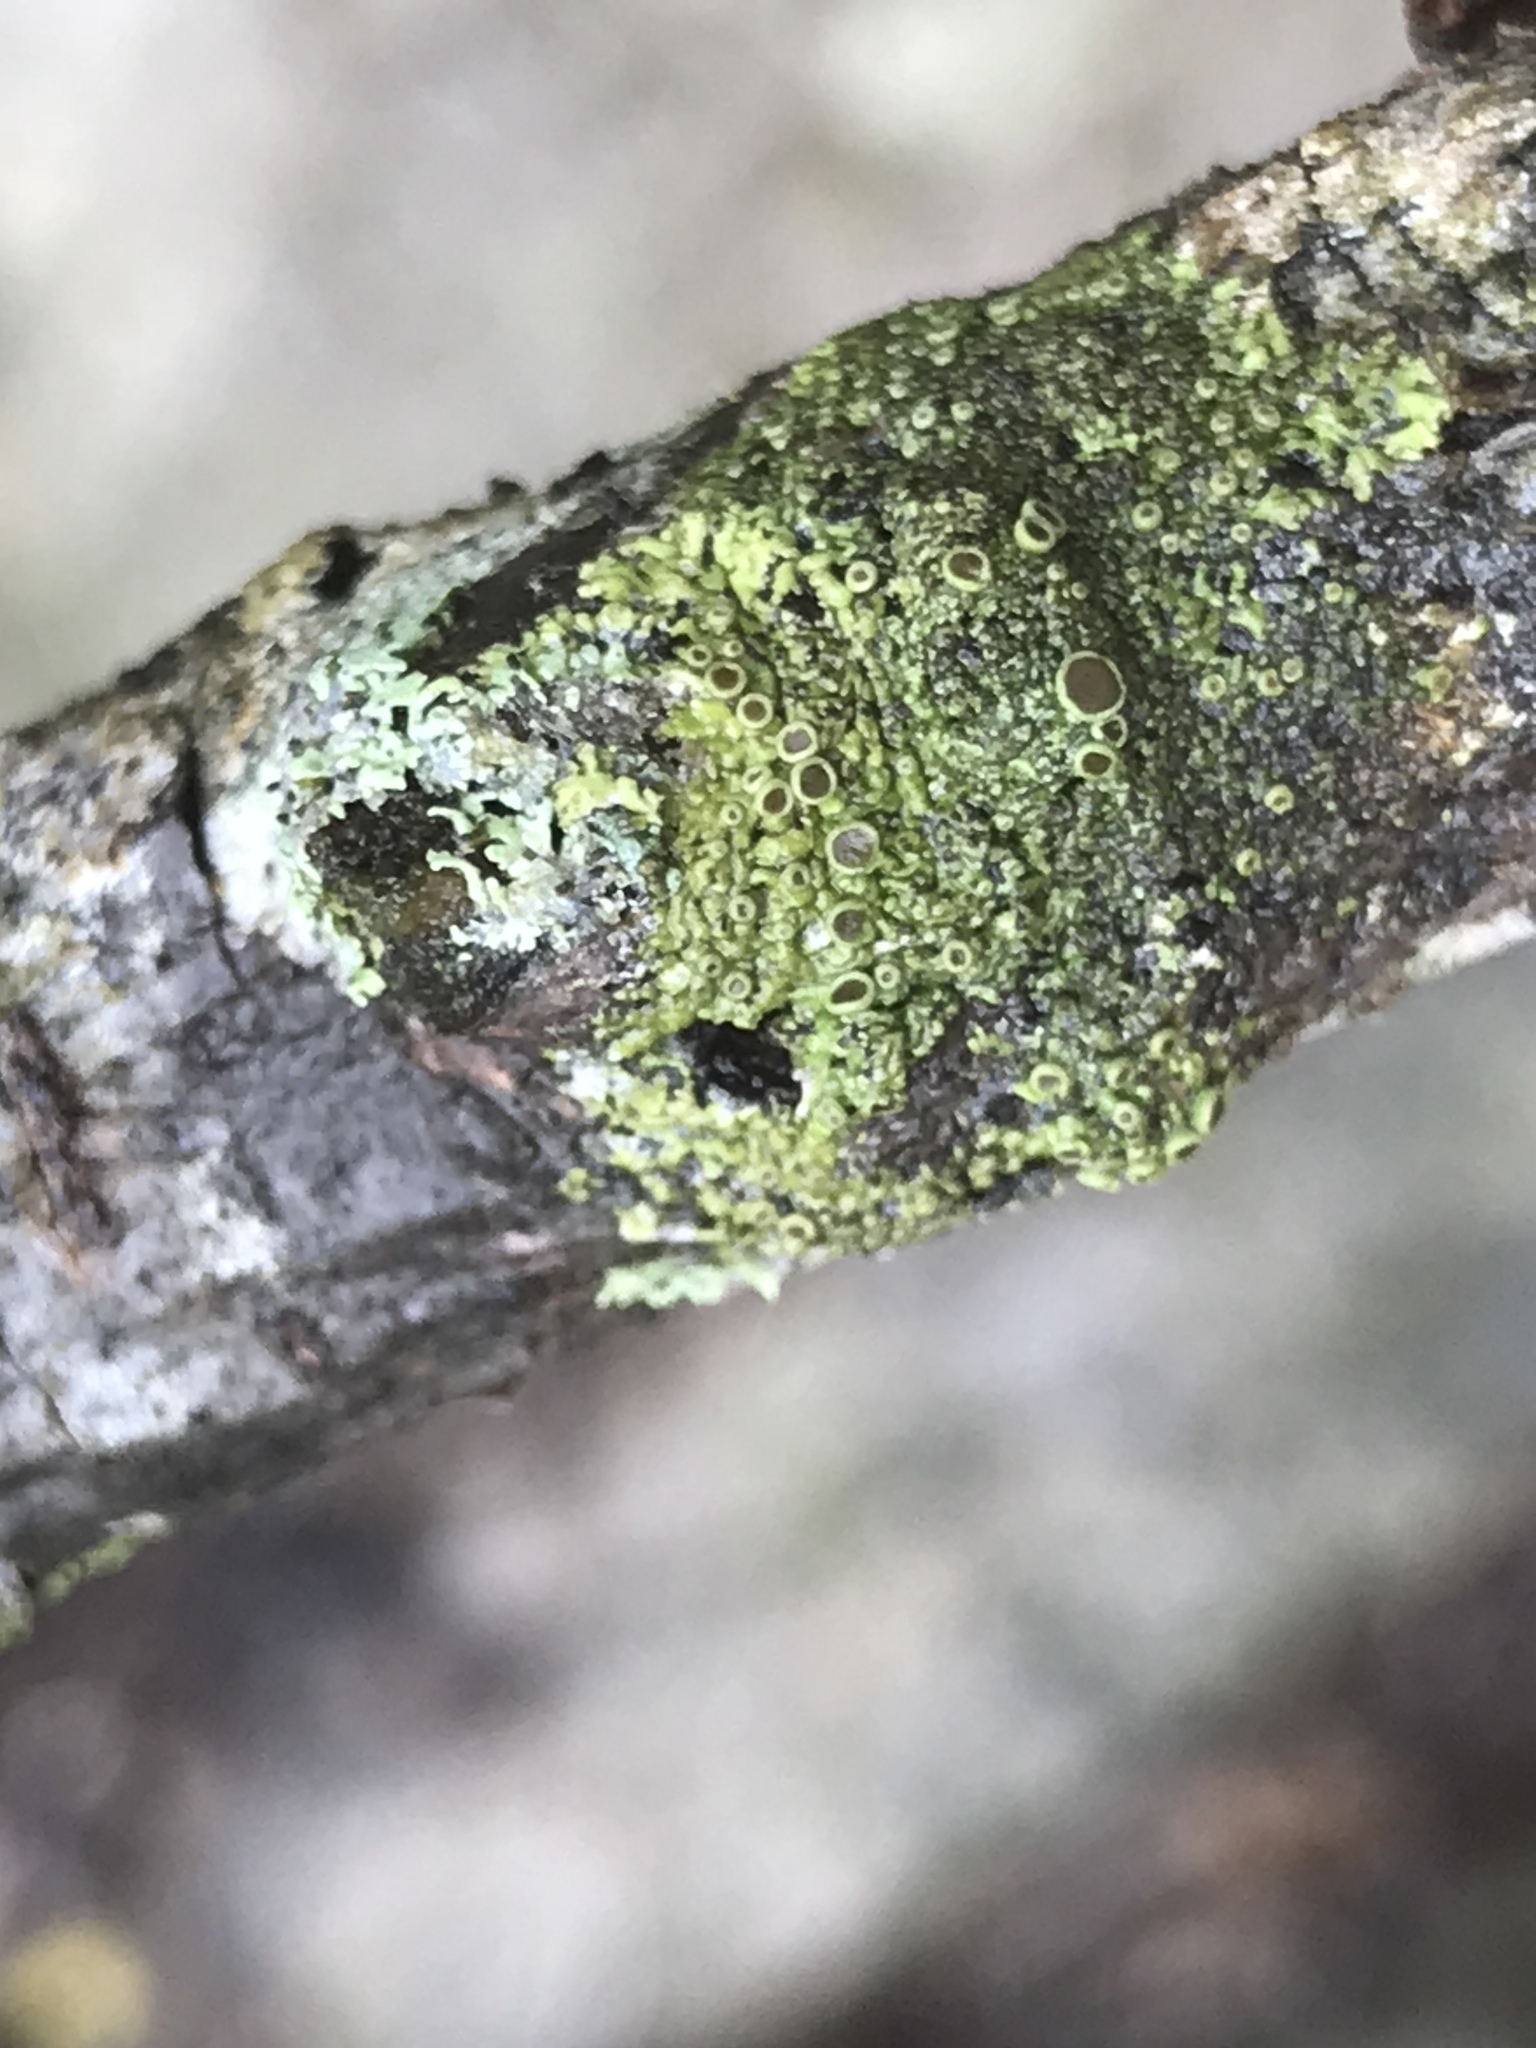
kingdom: Fungi
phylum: Ascomycota
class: Lecanoromycetes
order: Caliciales
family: Physciaceae
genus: Phaeophyscia
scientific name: Phaeophyscia ciliata
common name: Smooth shadow lichen
